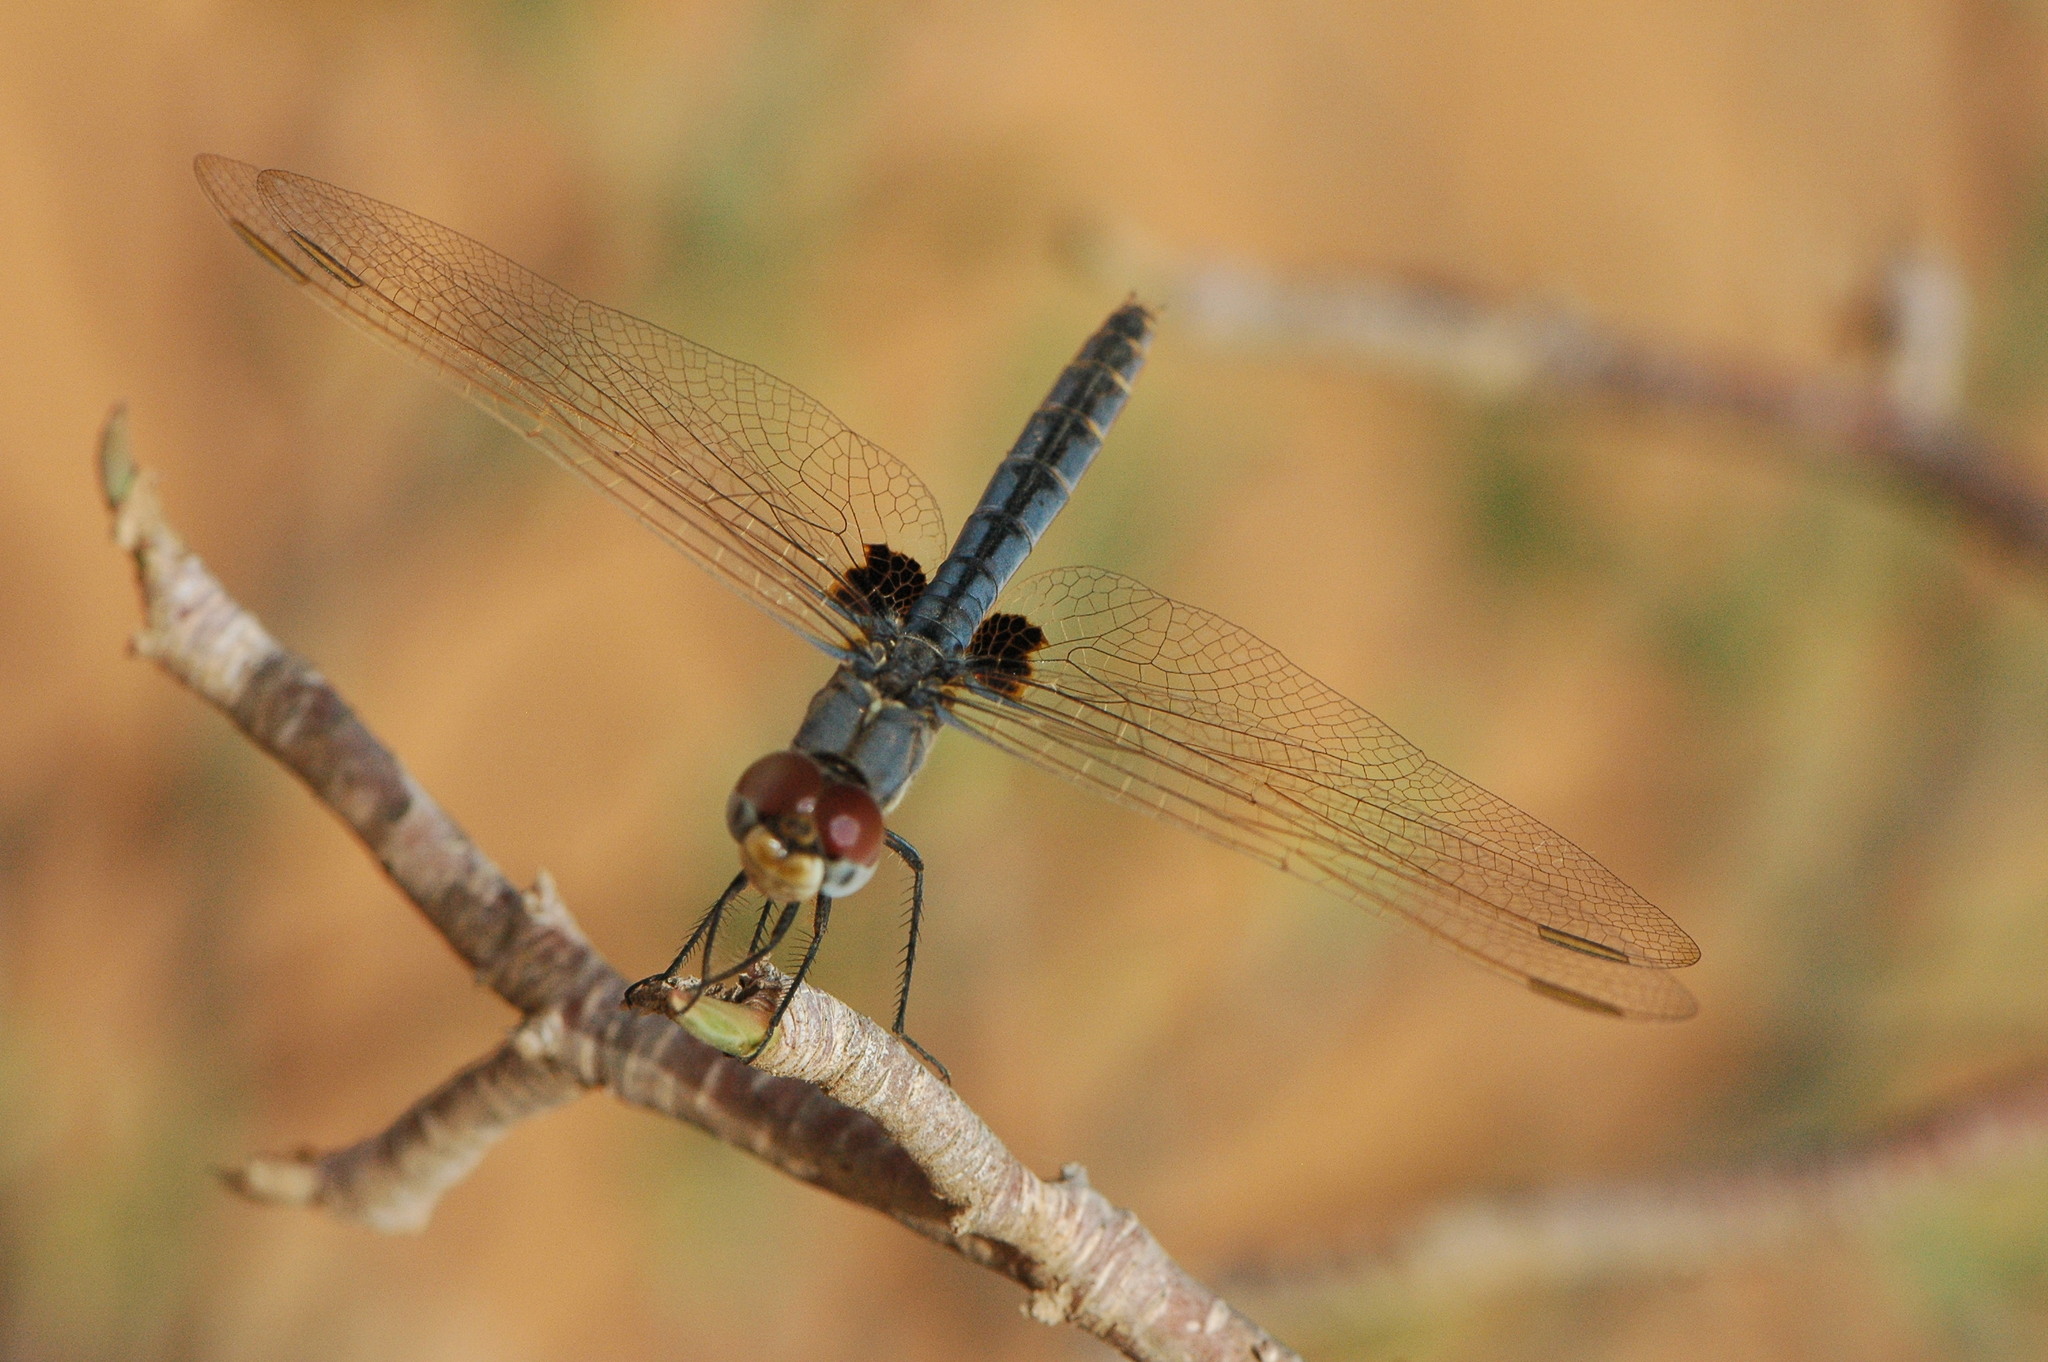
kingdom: Animalia
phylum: Arthropoda
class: Insecta
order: Odonata
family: Libellulidae
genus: Urothemis
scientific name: Urothemis edwardsii
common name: Blue basker
